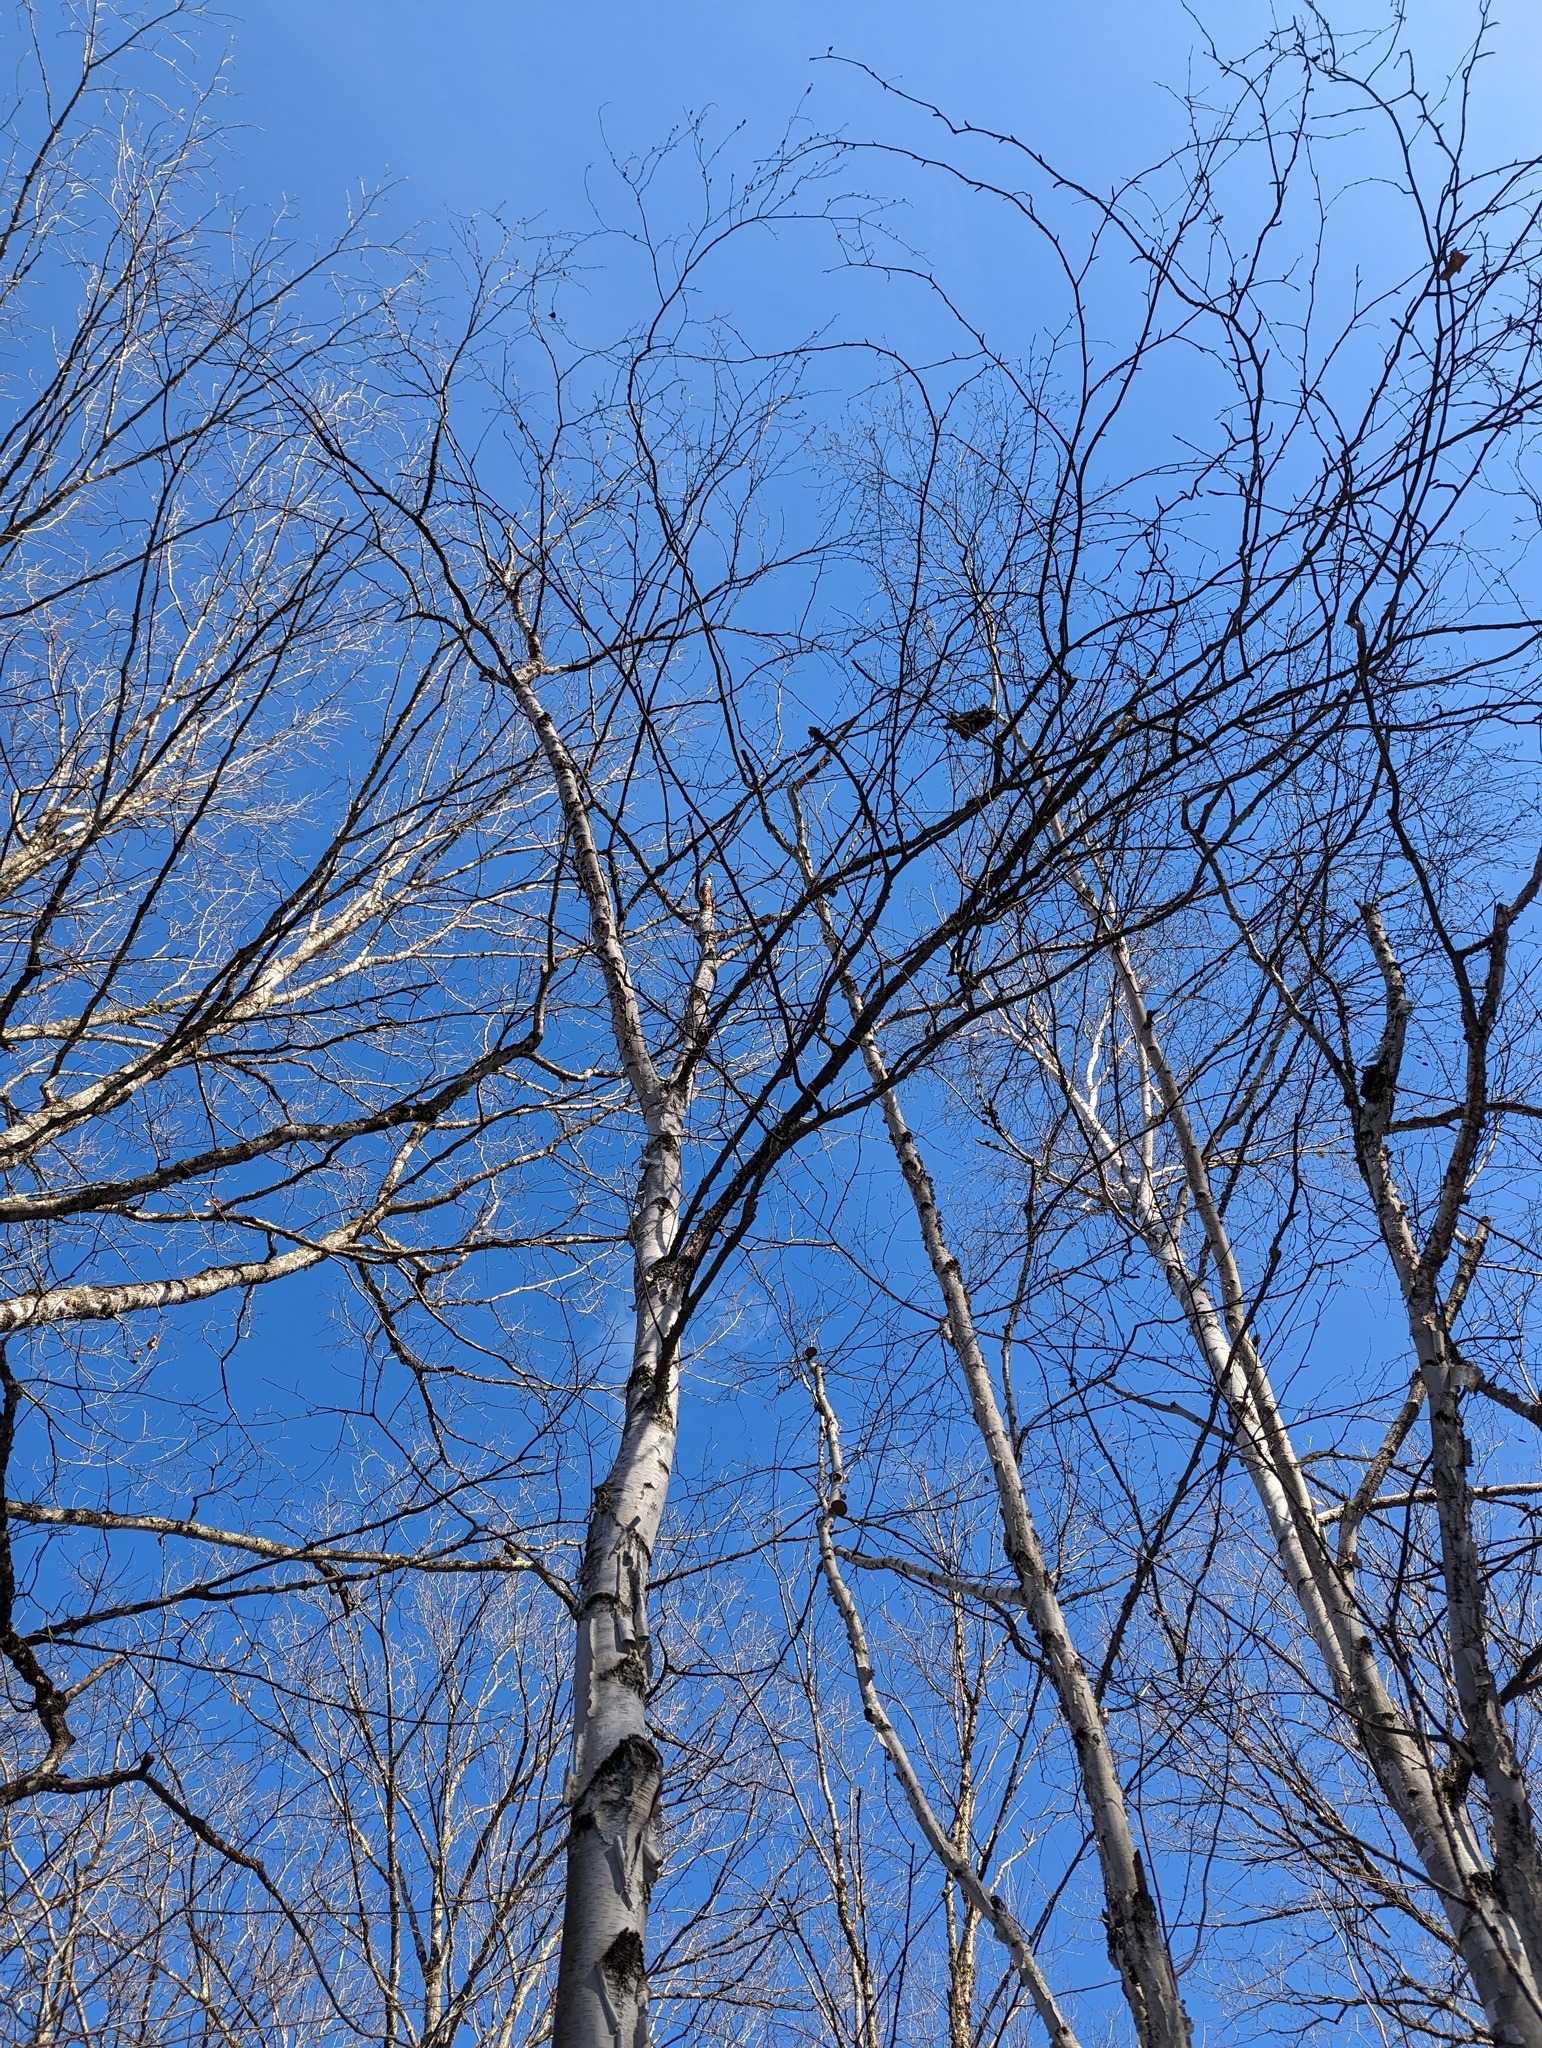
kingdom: Plantae
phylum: Tracheophyta
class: Magnoliopsida
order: Fagales
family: Betulaceae
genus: Betula
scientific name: Betula papyrifera
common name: Paper birch
